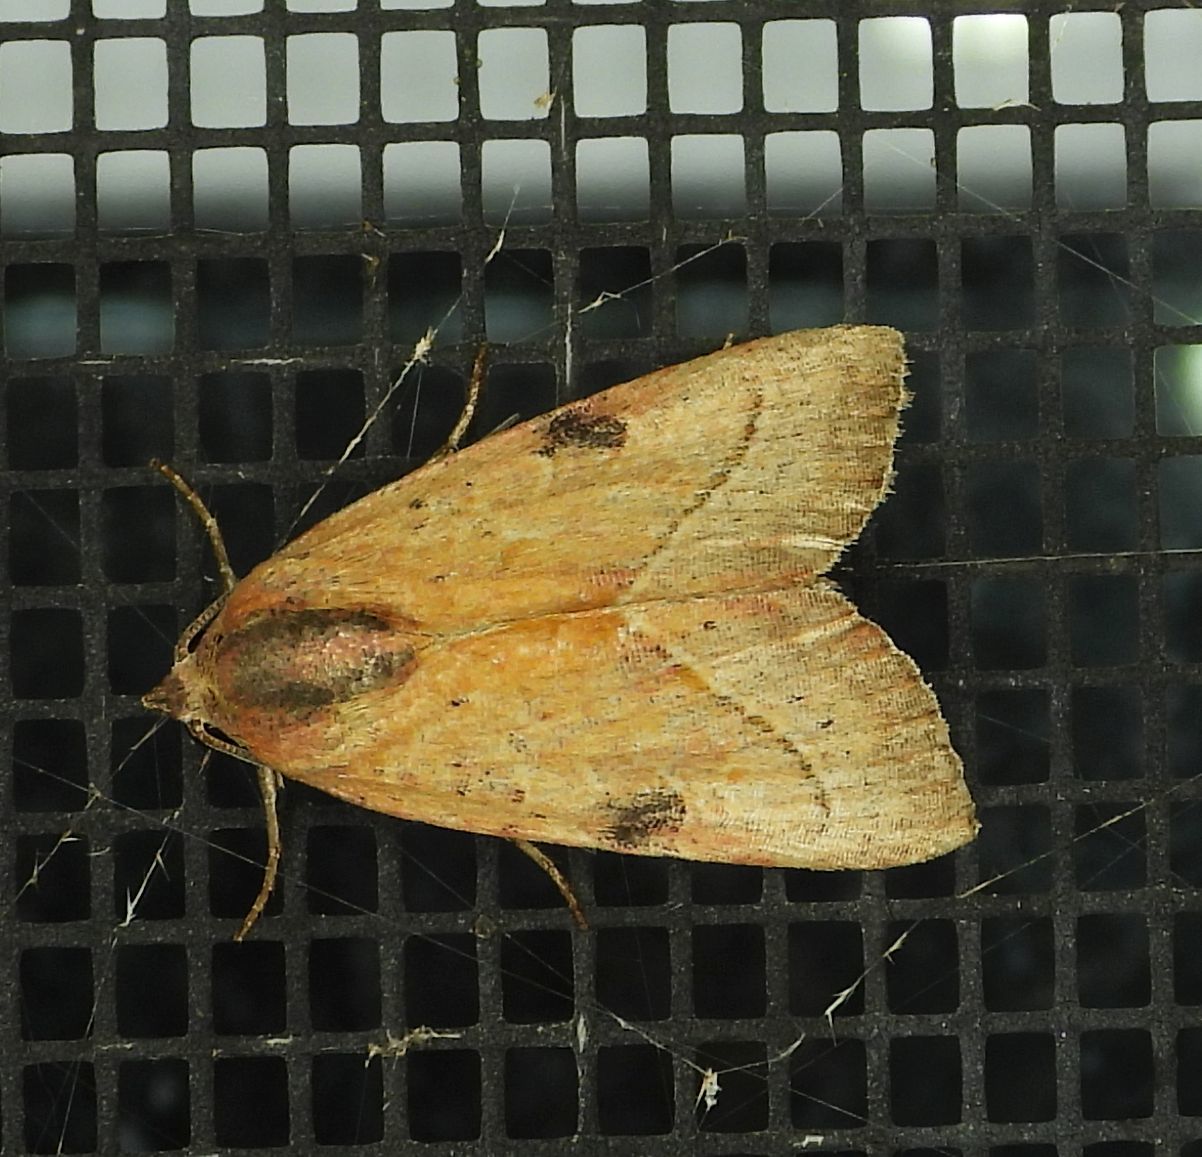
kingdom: Animalia
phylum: Arthropoda
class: Insecta
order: Lepidoptera
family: Noctuidae
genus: Galgula
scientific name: Galgula partita
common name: Wedgeling
